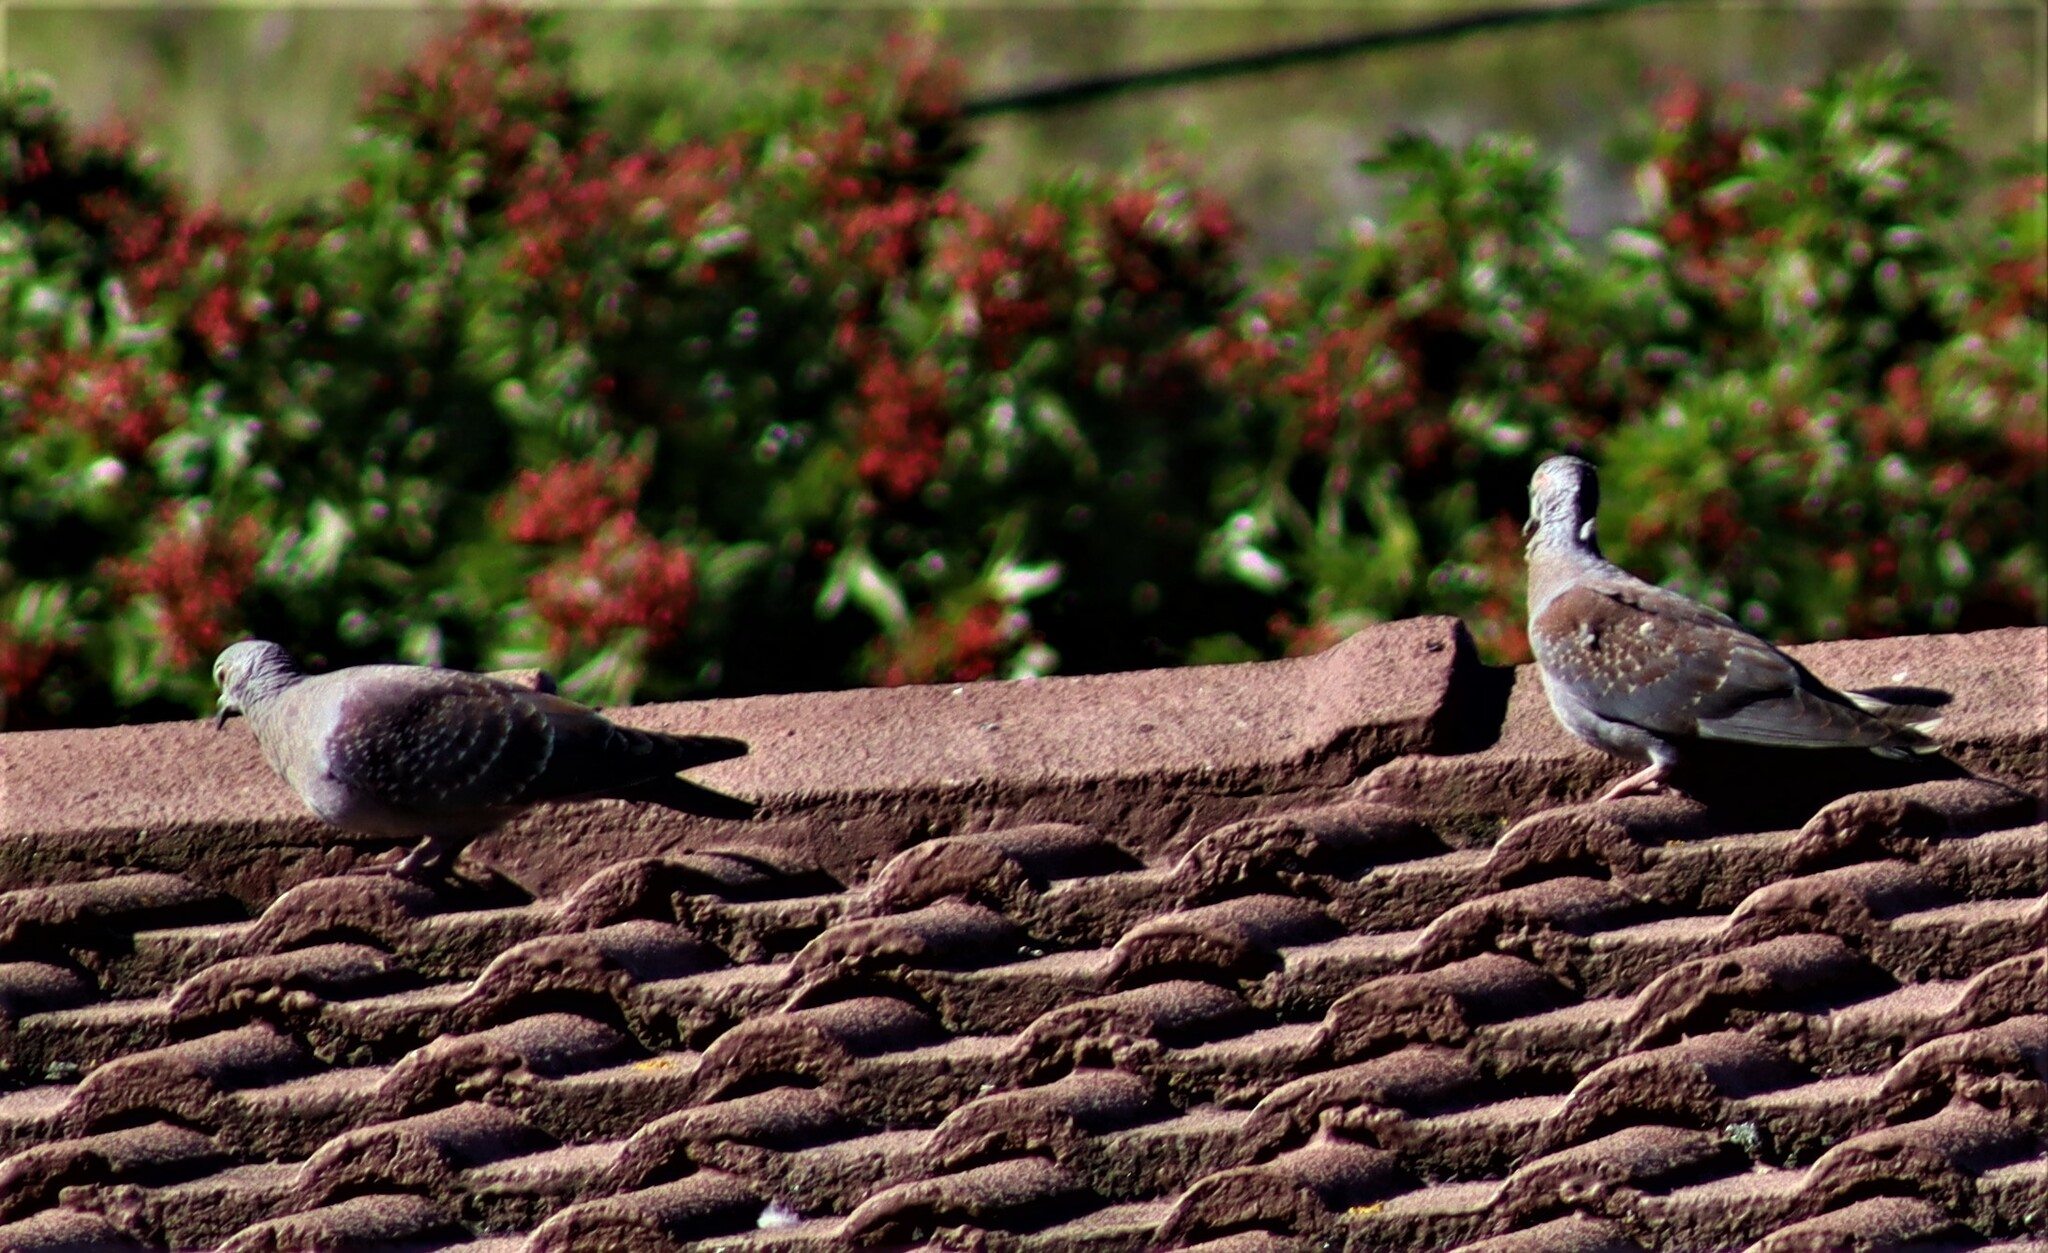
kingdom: Animalia
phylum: Chordata
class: Aves
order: Columbiformes
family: Columbidae
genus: Columba
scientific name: Columba guinea
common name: Speckled pigeon
